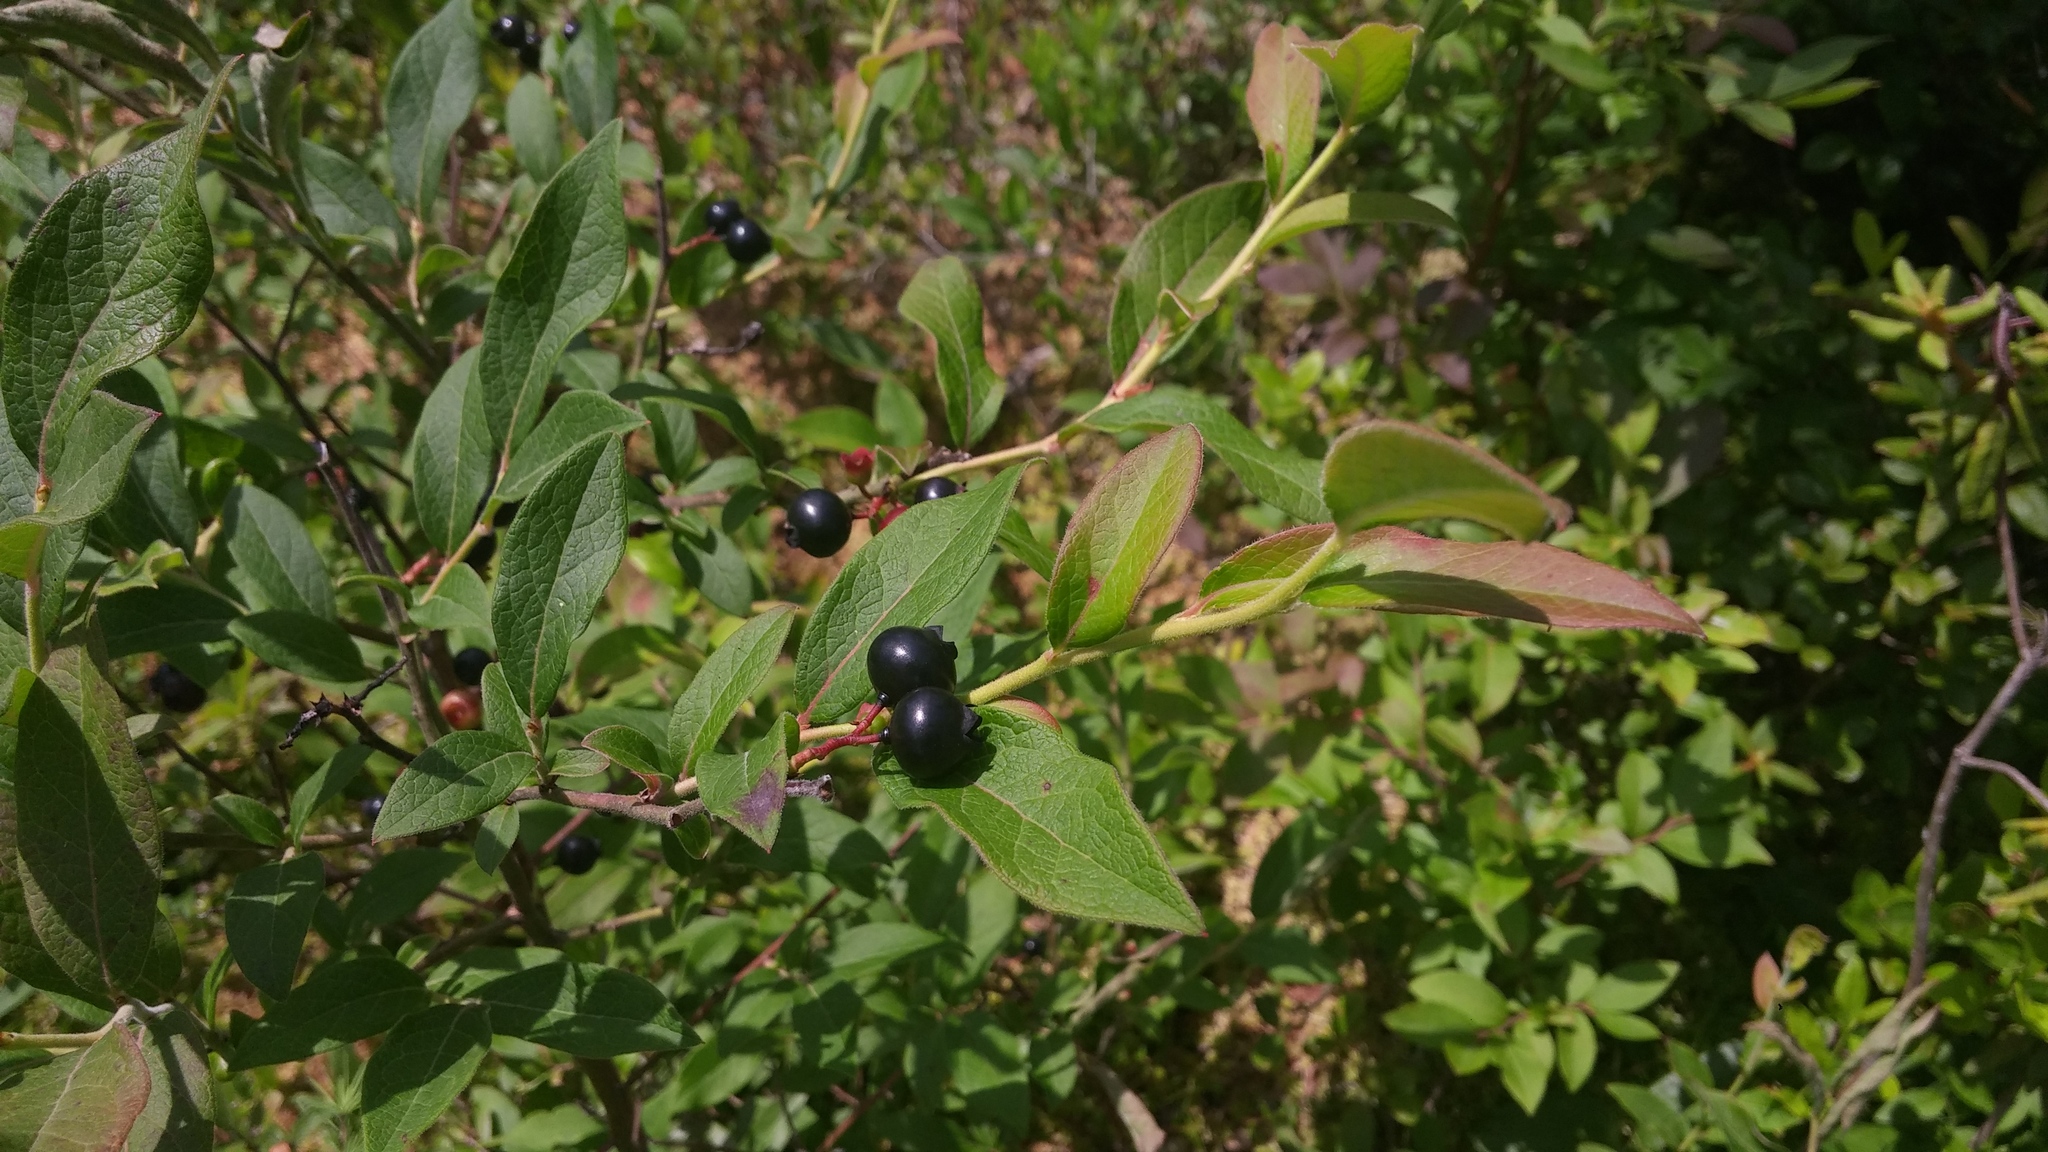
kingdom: Plantae
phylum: Tracheophyta
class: Magnoliopsida
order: Ericales
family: Ericaceae
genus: Gaylussacia
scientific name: Gaylussacia baccata
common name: Black huckleberry
